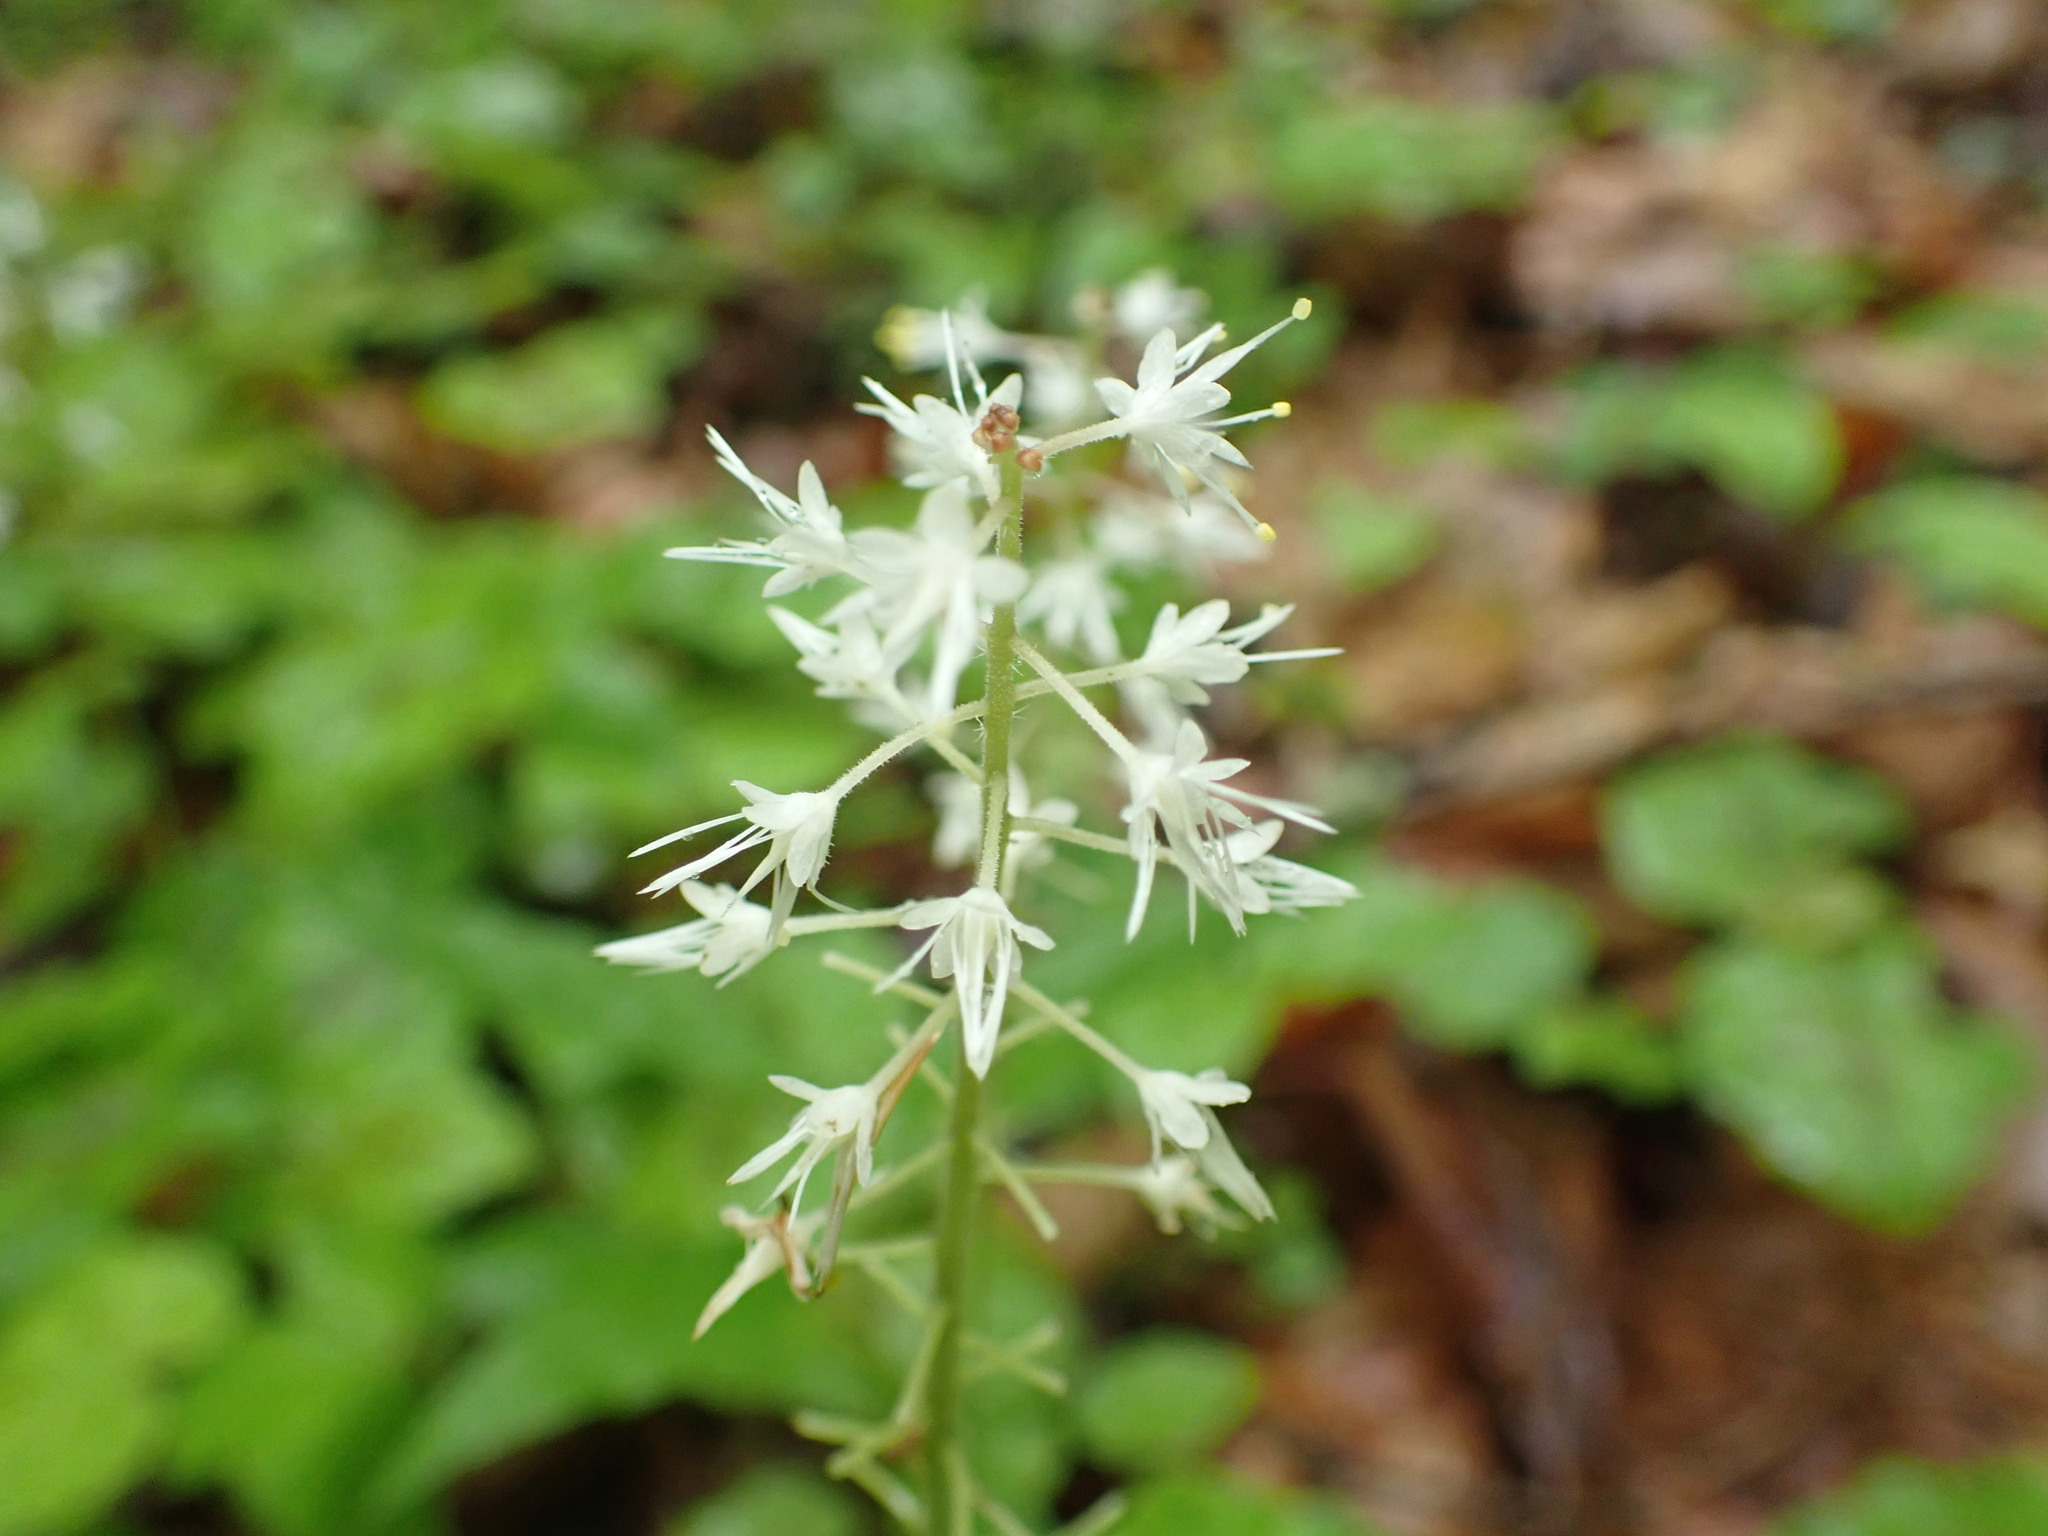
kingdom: Plantae
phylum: Tracheophyta
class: Magnoliopsida
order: Saxifragales
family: Saxifragaceae
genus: Tiarella
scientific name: Tiarella stolonifera
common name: Stoloniferous foamflower
